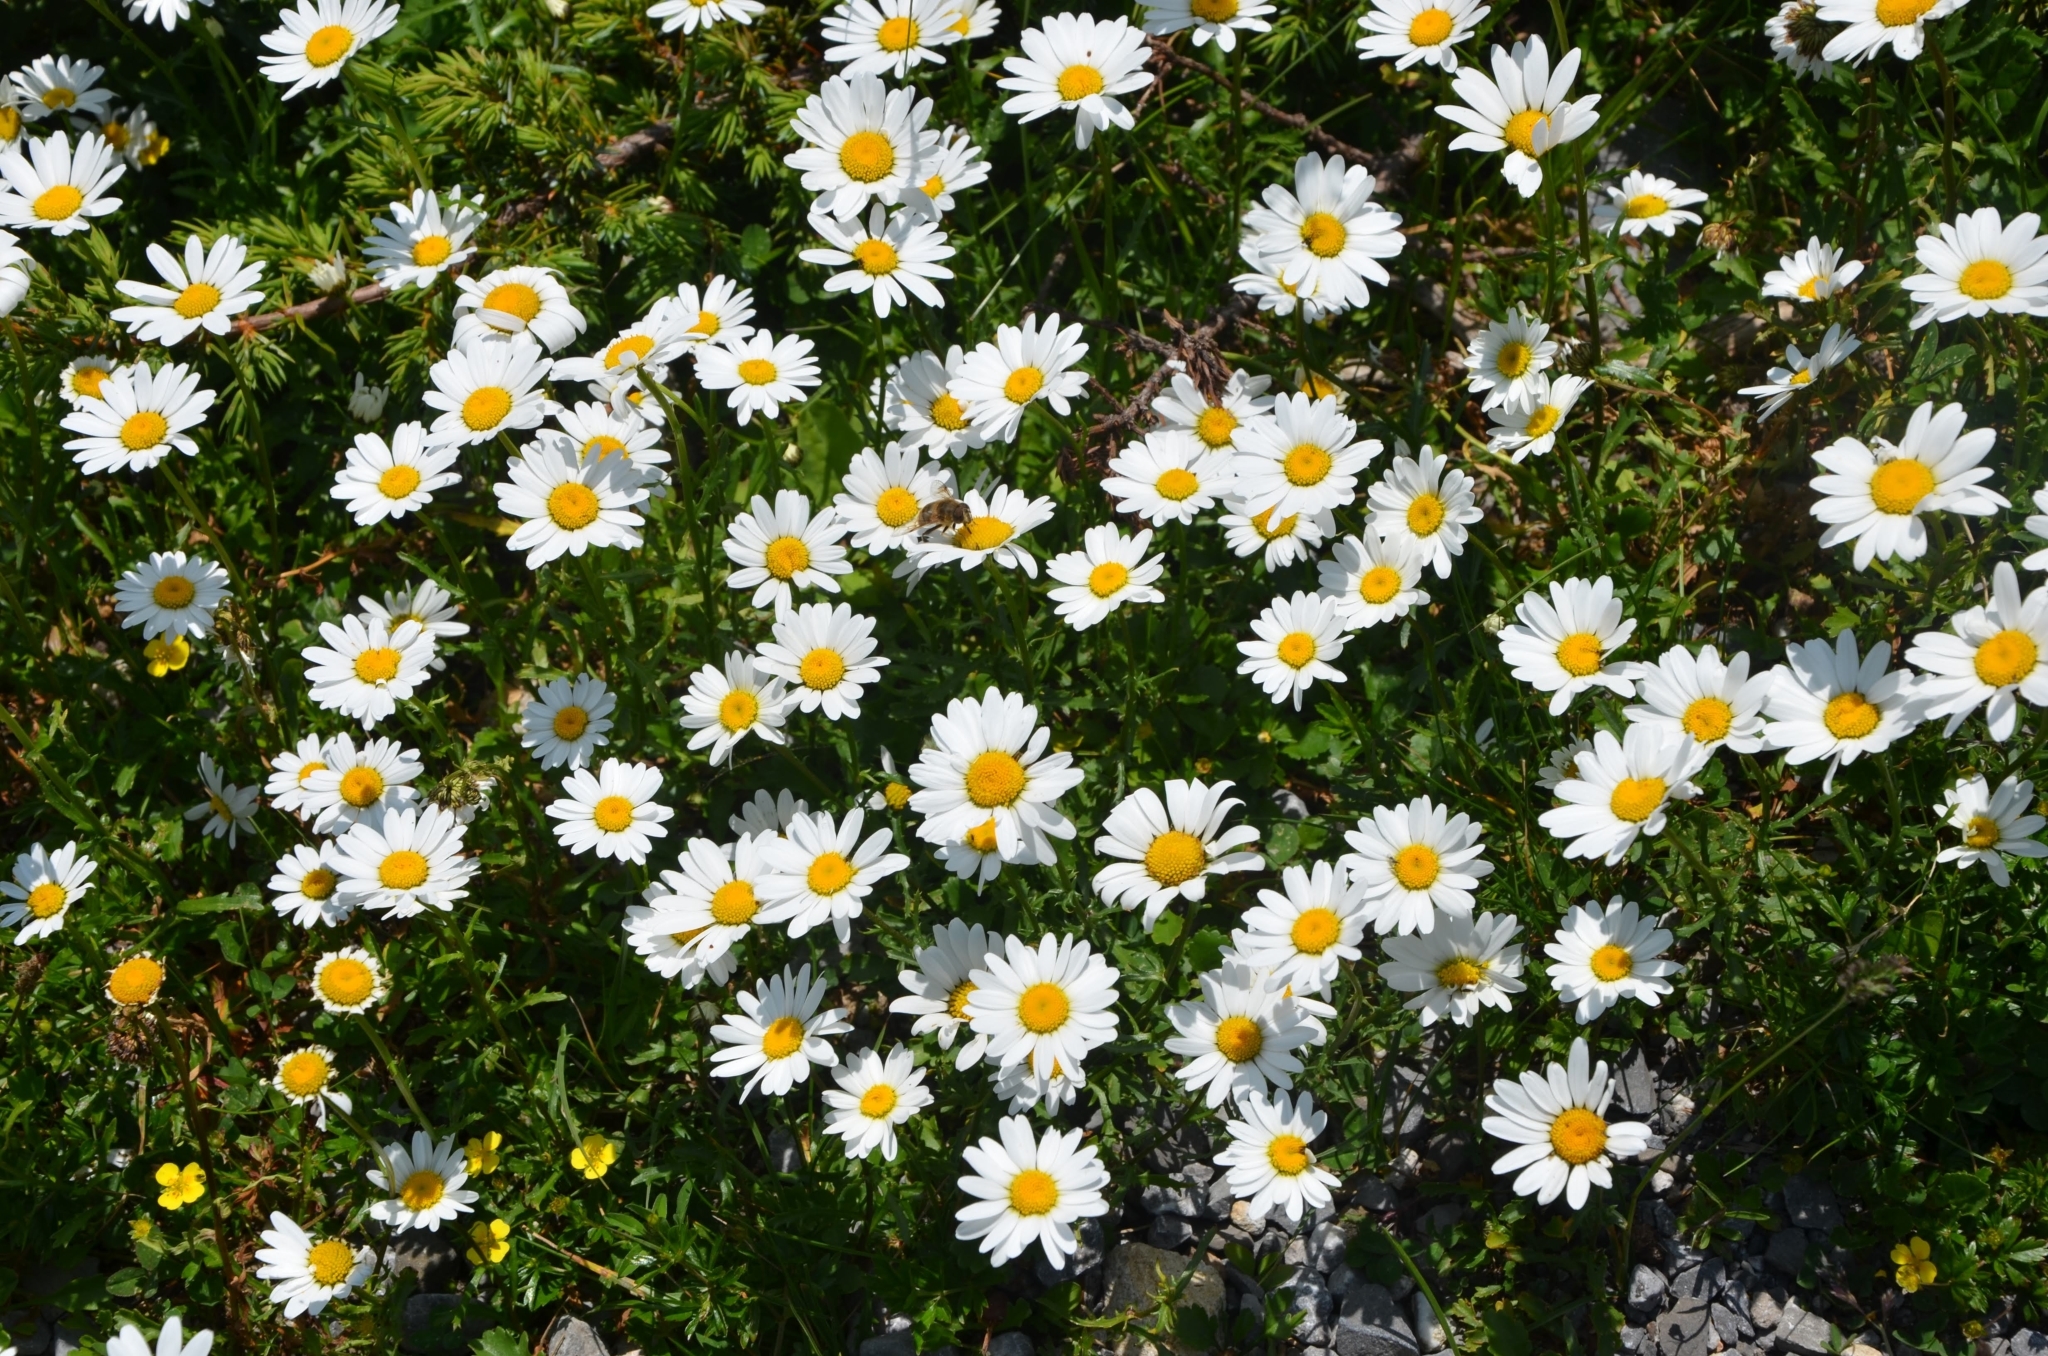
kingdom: Plantae
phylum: Tracheophyta
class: Magnoliopsida
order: Asterales
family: Asteraceae
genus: Leucanthemum
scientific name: Leucanthemum vulgare
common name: Oxeye daisy
